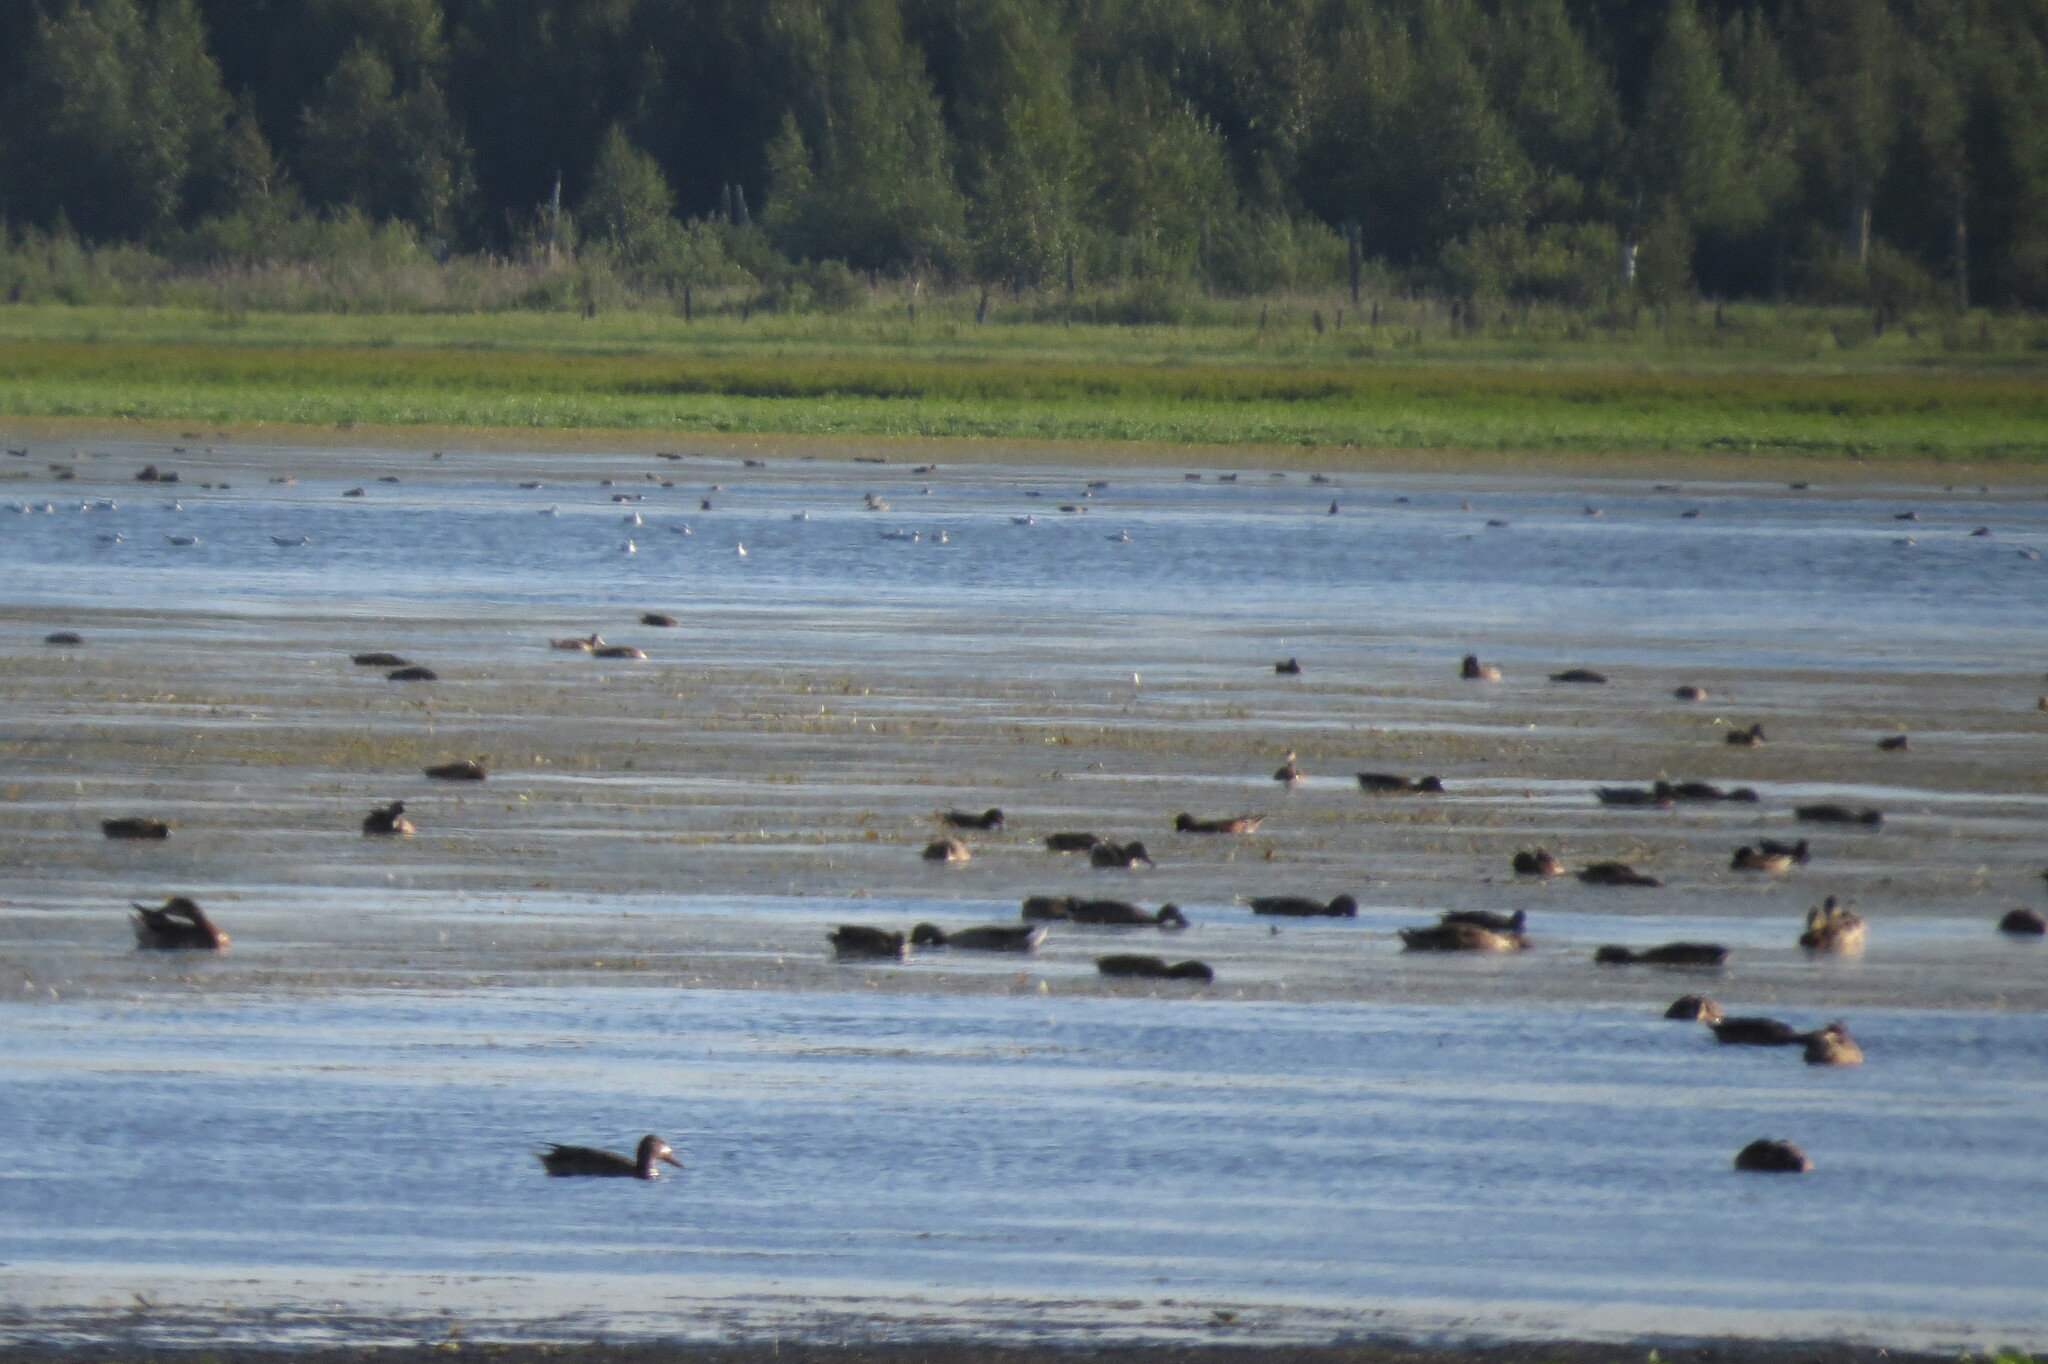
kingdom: Animalia
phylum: Chordata
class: Aves
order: Anseriformes
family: Anatidae
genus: Spatula
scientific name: Spatula clypeata
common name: Northern shoveler
